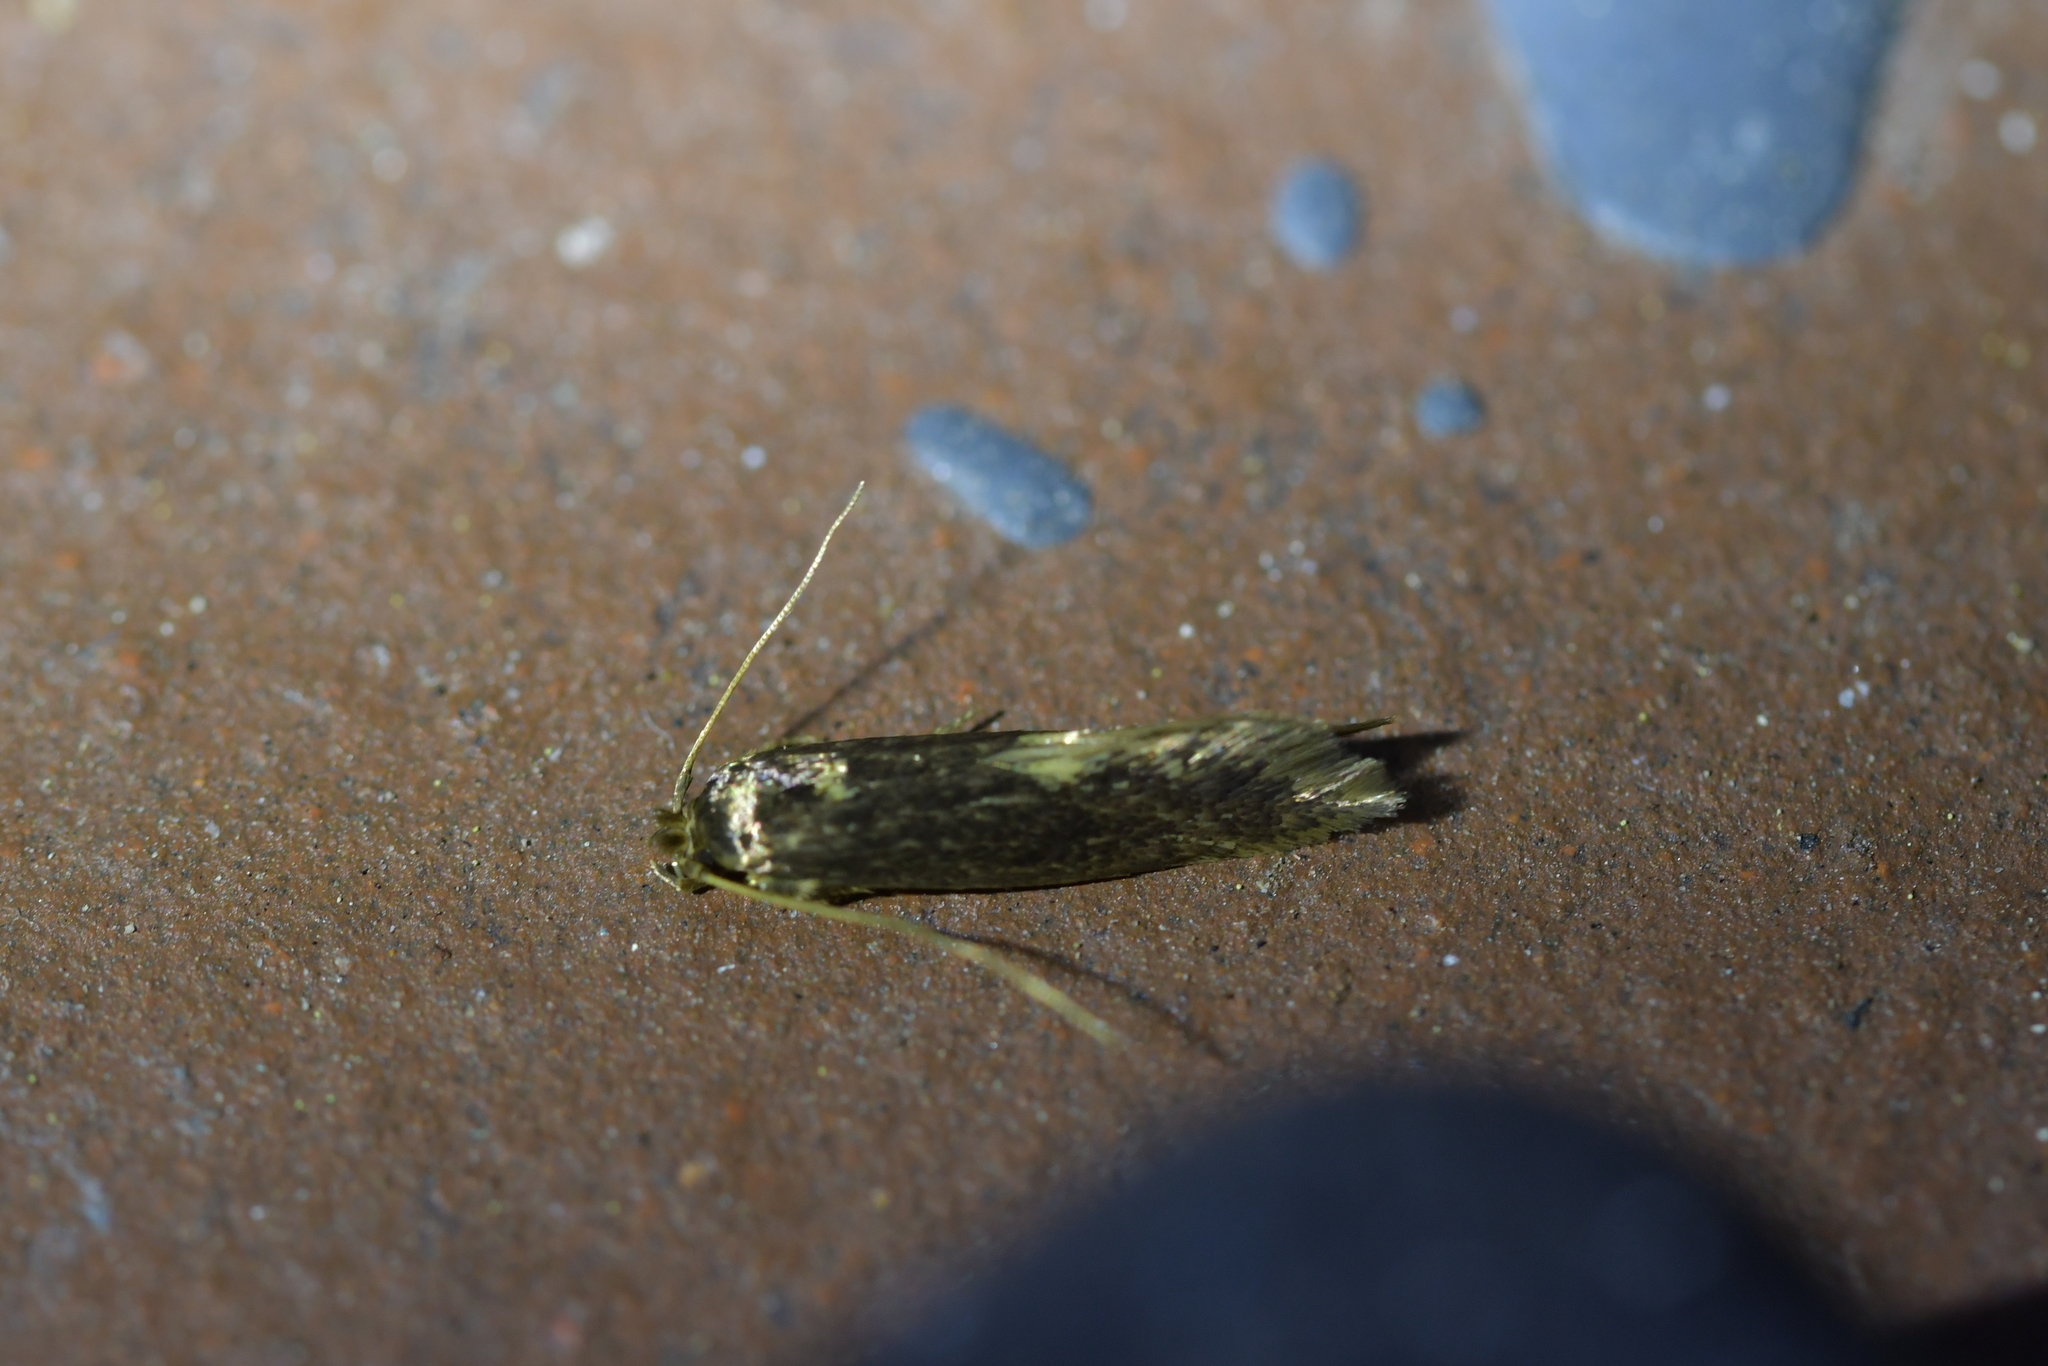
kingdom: Animalia
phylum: Arthropoda
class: Insecta
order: Lepidoptera
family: Tineidae
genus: Opogona
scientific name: Opogona omoscopa
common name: Moth
